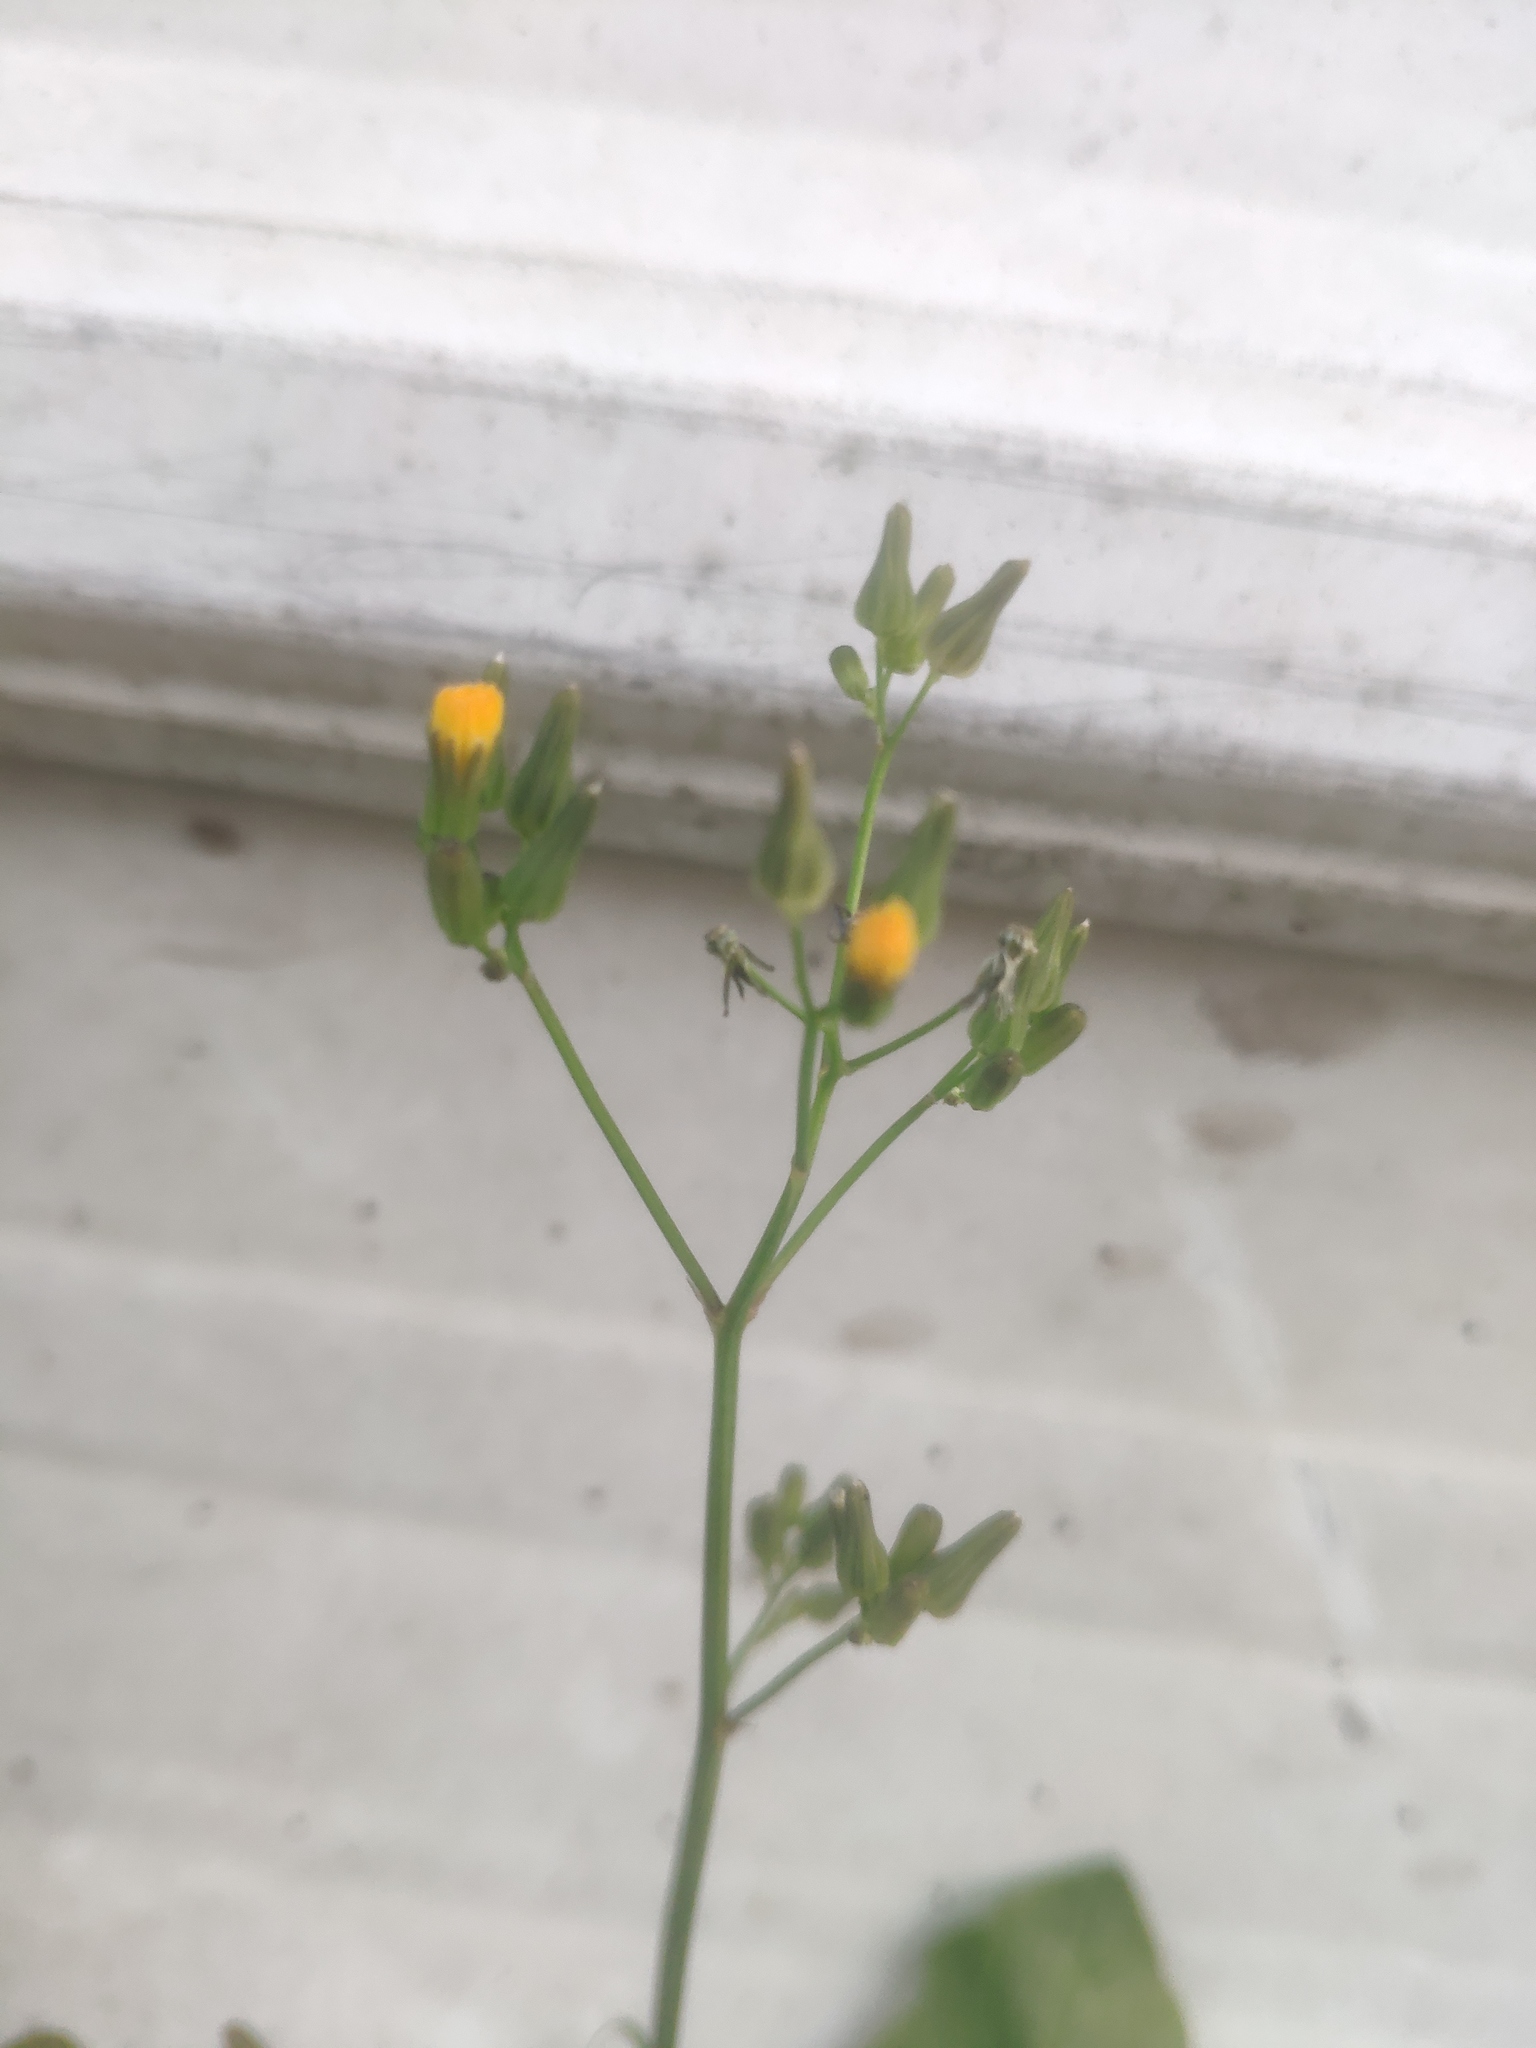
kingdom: Plantae
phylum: Tracheophyta
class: Magnoliopsida
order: Asterales
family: Asteraceae
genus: Youngia
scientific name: Youngia japonica
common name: Oriental false hawksbeard
